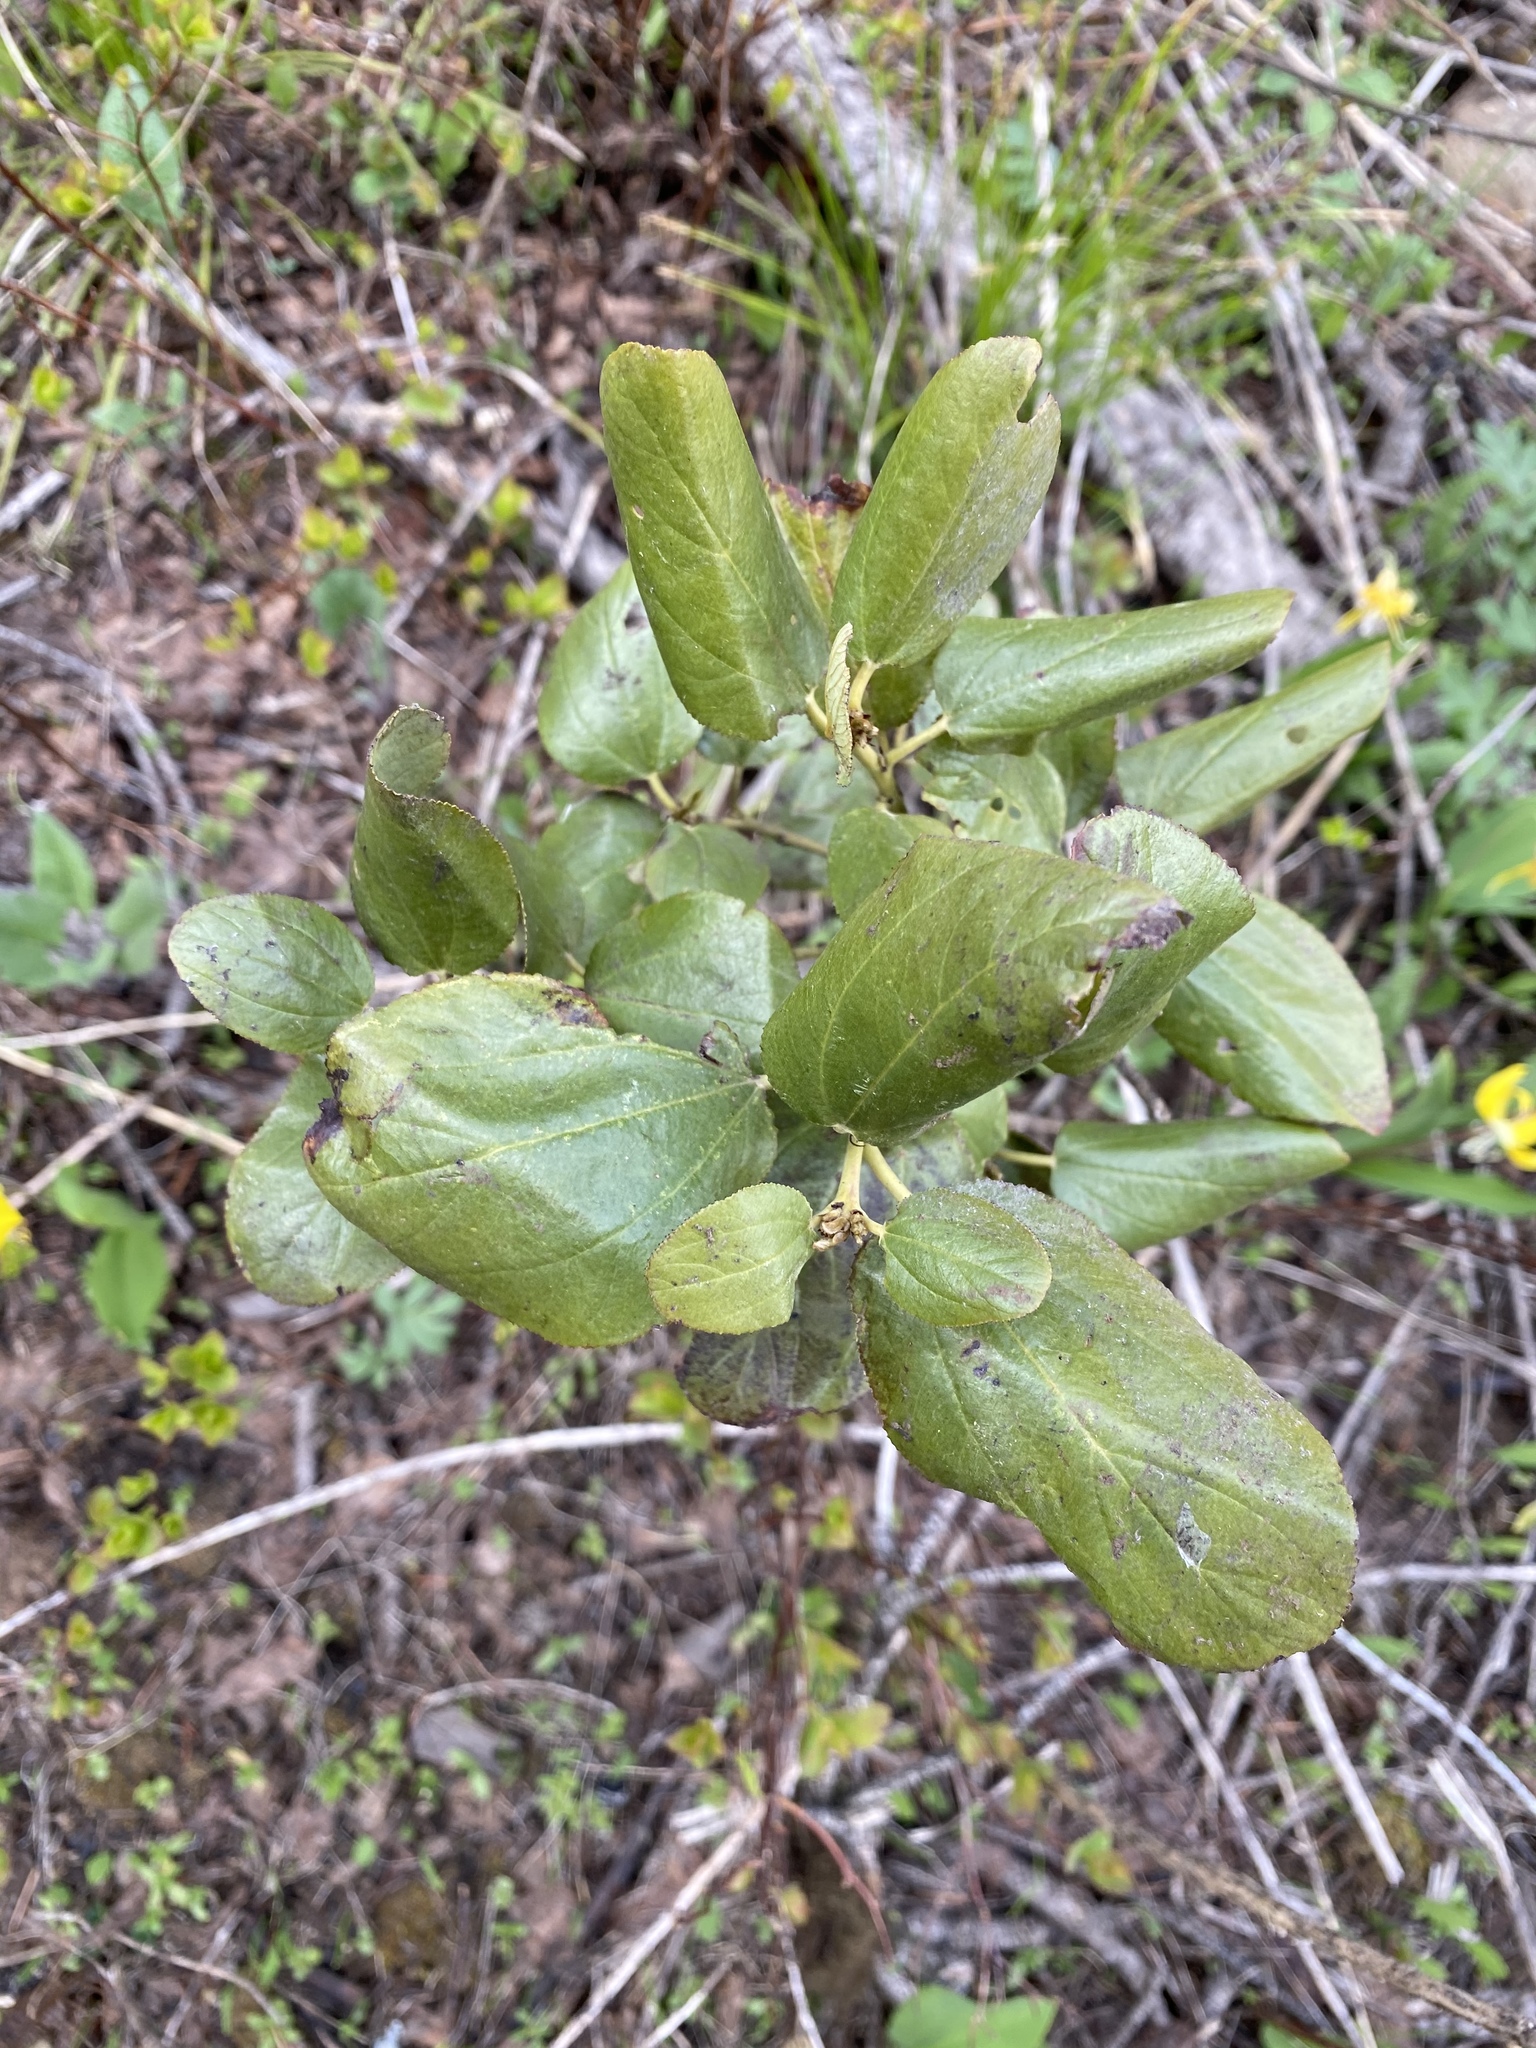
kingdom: Plantae
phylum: Tracheophyta
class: Magnoliopsida
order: Rosales
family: Rhamnaceae
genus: Ceanothus
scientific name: Ceanothus velutinus
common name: Snowbrush
